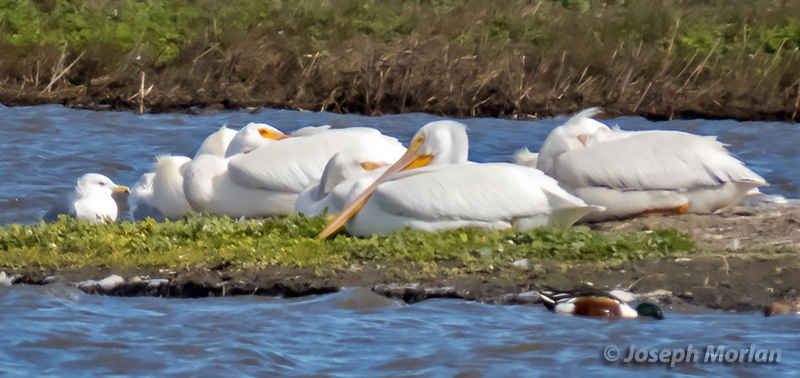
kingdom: Animalia
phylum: Chordata
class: Aves
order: Pelecaniformes
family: Pelecanidae
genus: Pelecanus
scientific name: Pelecanus erythrorhynchos
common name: American white pelican
